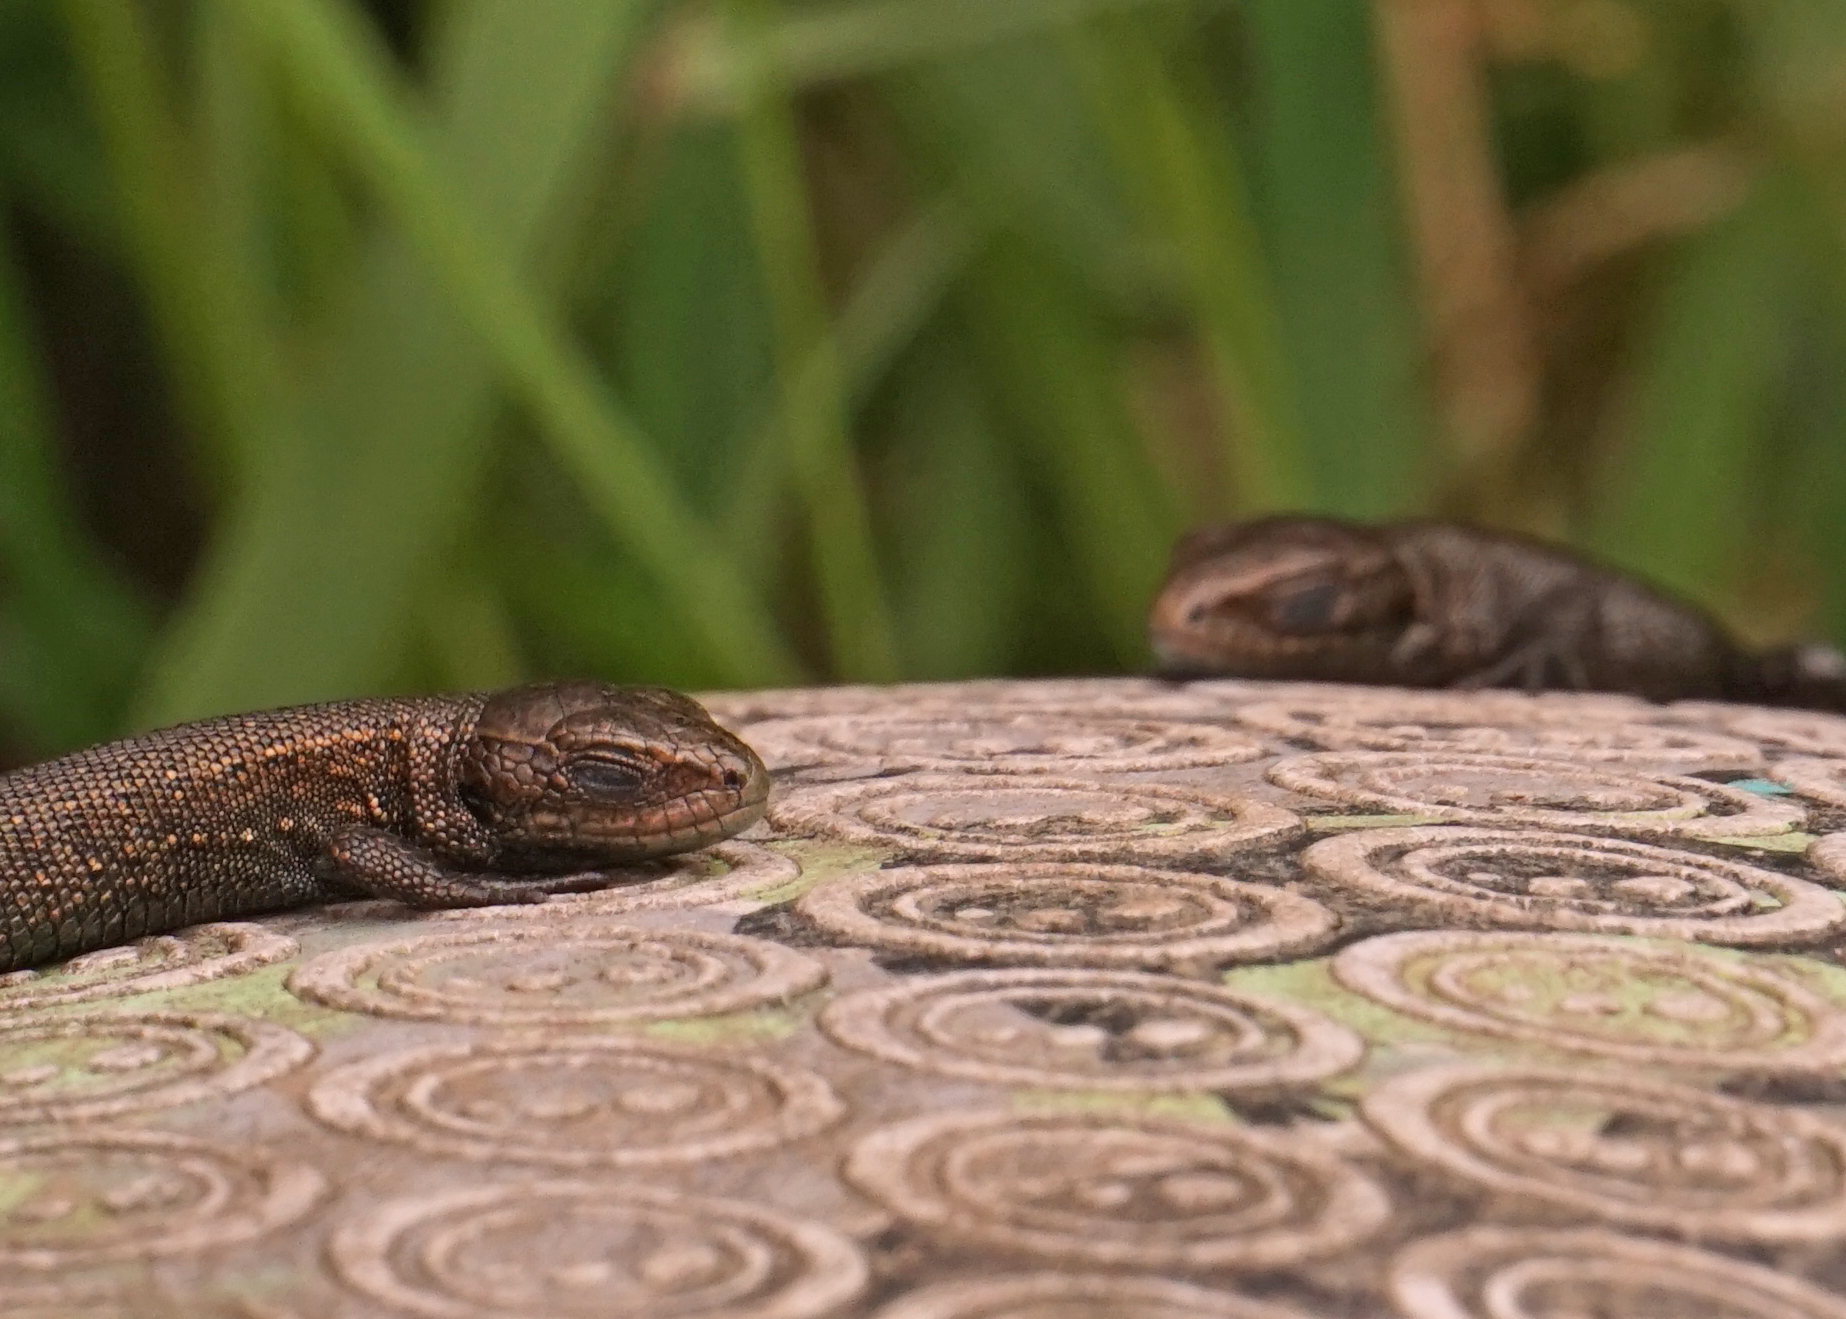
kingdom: Animalia
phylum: Chordata
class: Squamata
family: Lacertidae
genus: Zootoca
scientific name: Zootoca vivipara
